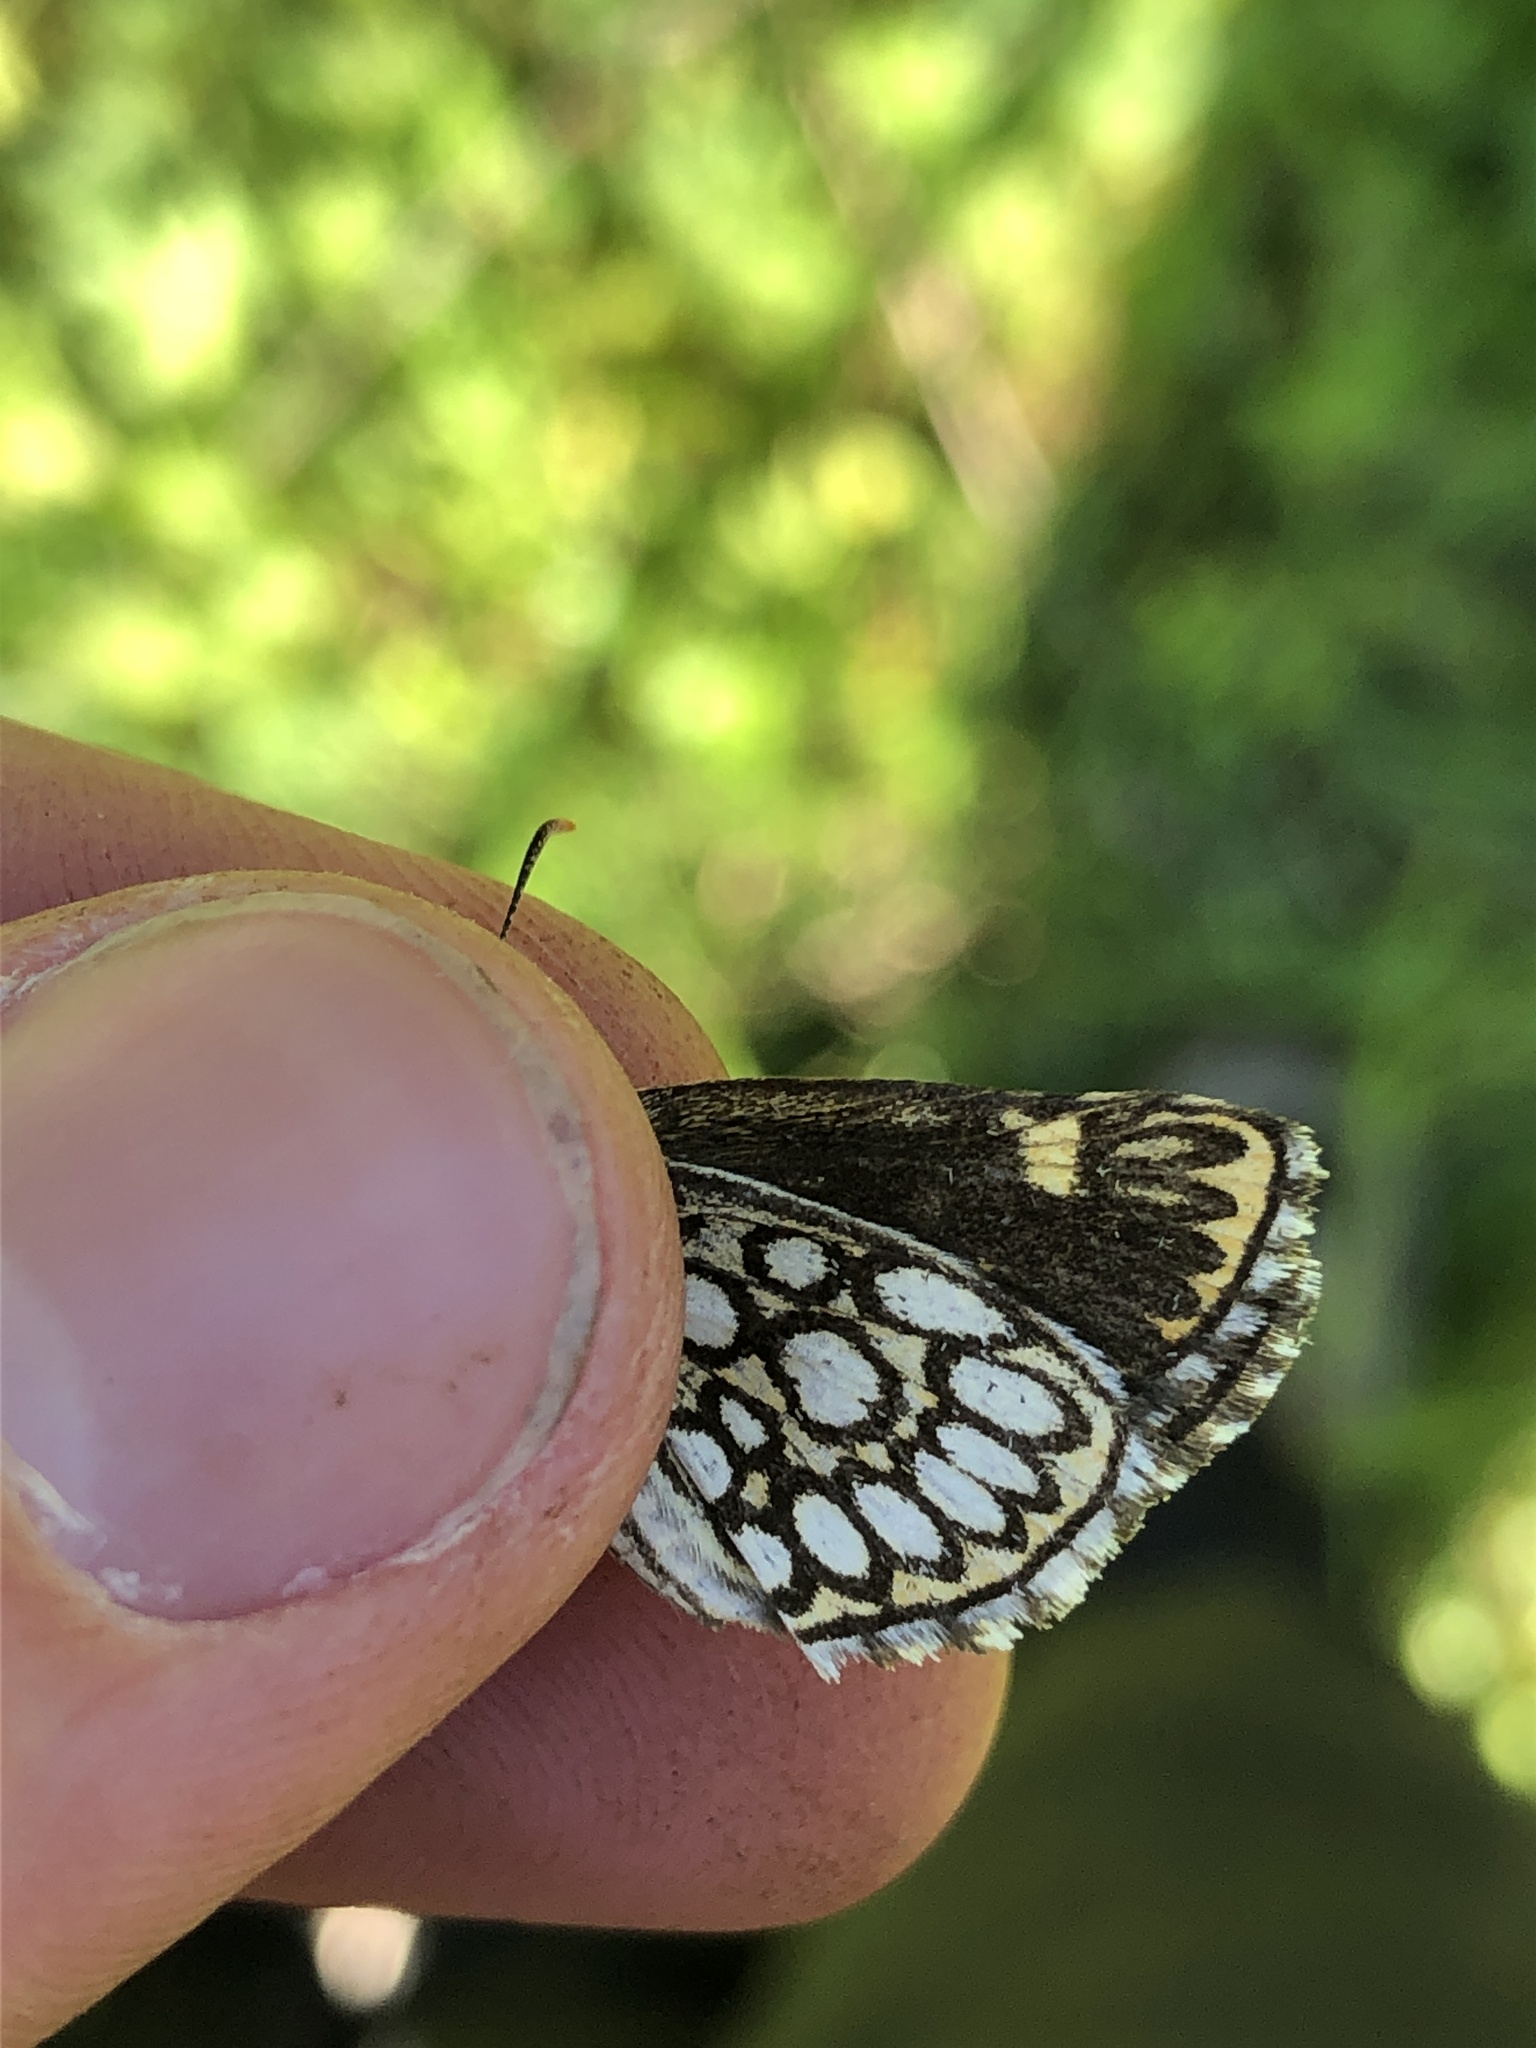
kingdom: Animalia
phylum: Arthropoda
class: Insecta
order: Lepidoptera
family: Hesperiidae
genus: Heteropterus
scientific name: Heteropterus morpheus
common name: Large chequered skipper
